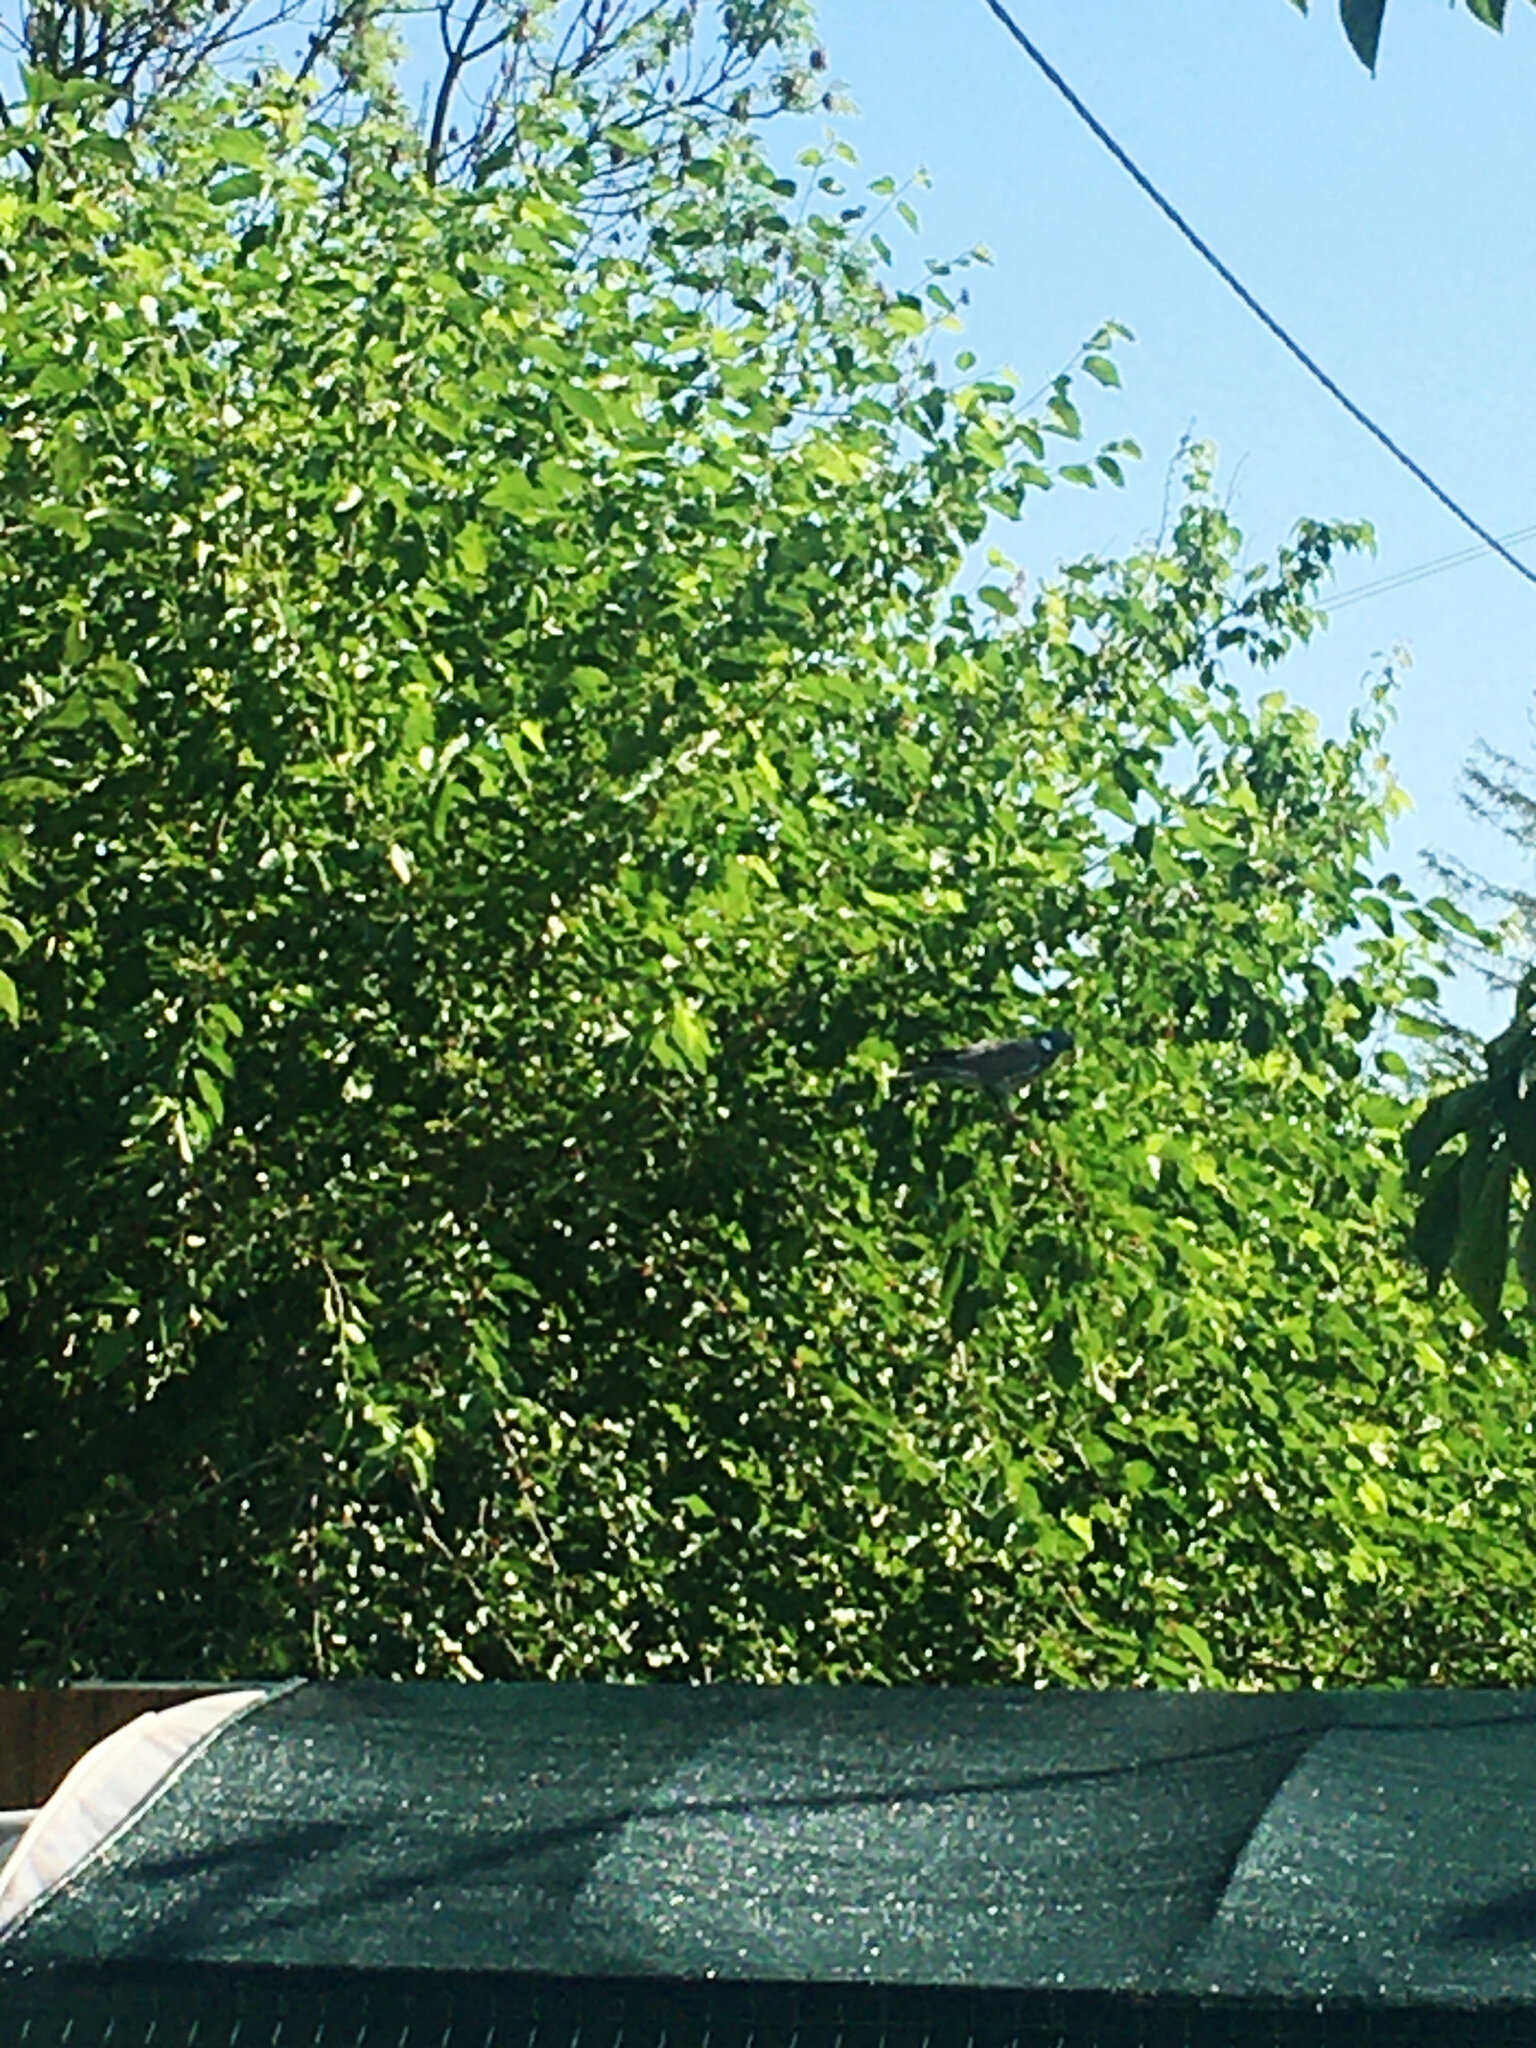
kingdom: Animalia
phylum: Chordata
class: Aves
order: Columbiformes
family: Columbidae
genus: Columba
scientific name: Columba palumbus
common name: Common wood pigeon
